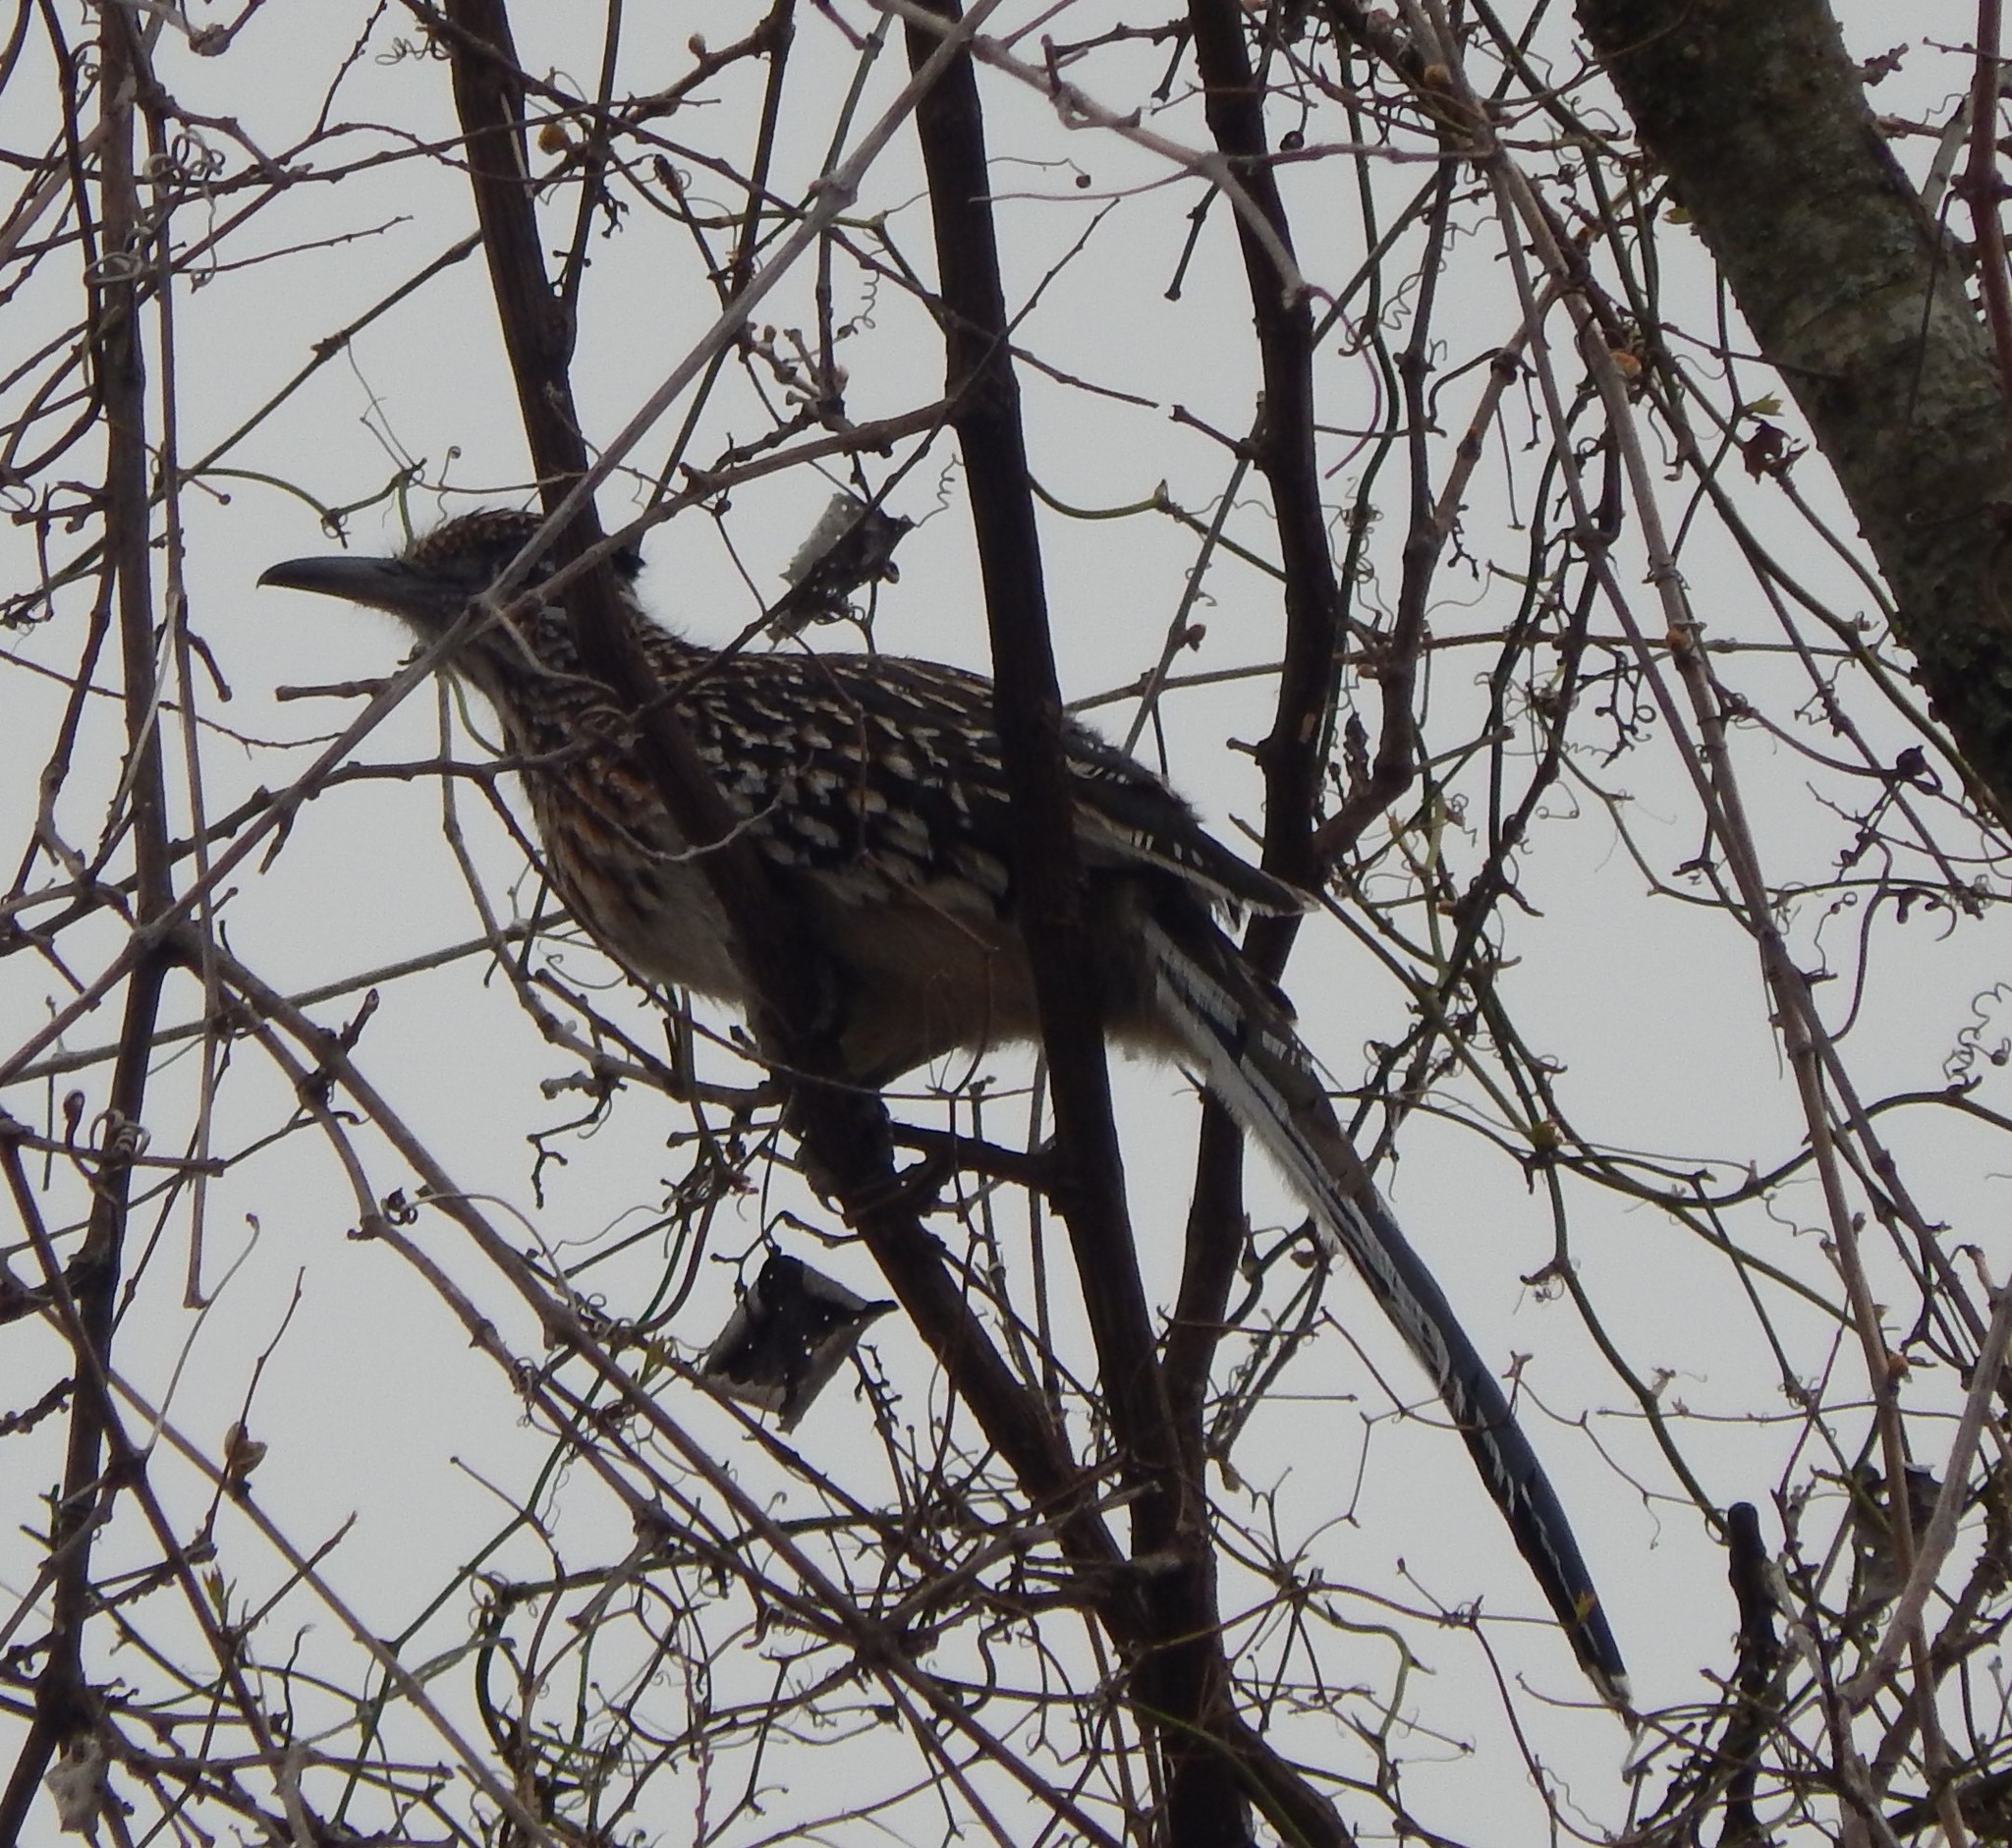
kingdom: Animalia
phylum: Chordata
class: Aves
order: Cuculiformes
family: Cuculidae
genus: Geococcyx
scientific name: Geococcyx californianus
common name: Greater roadrunner
